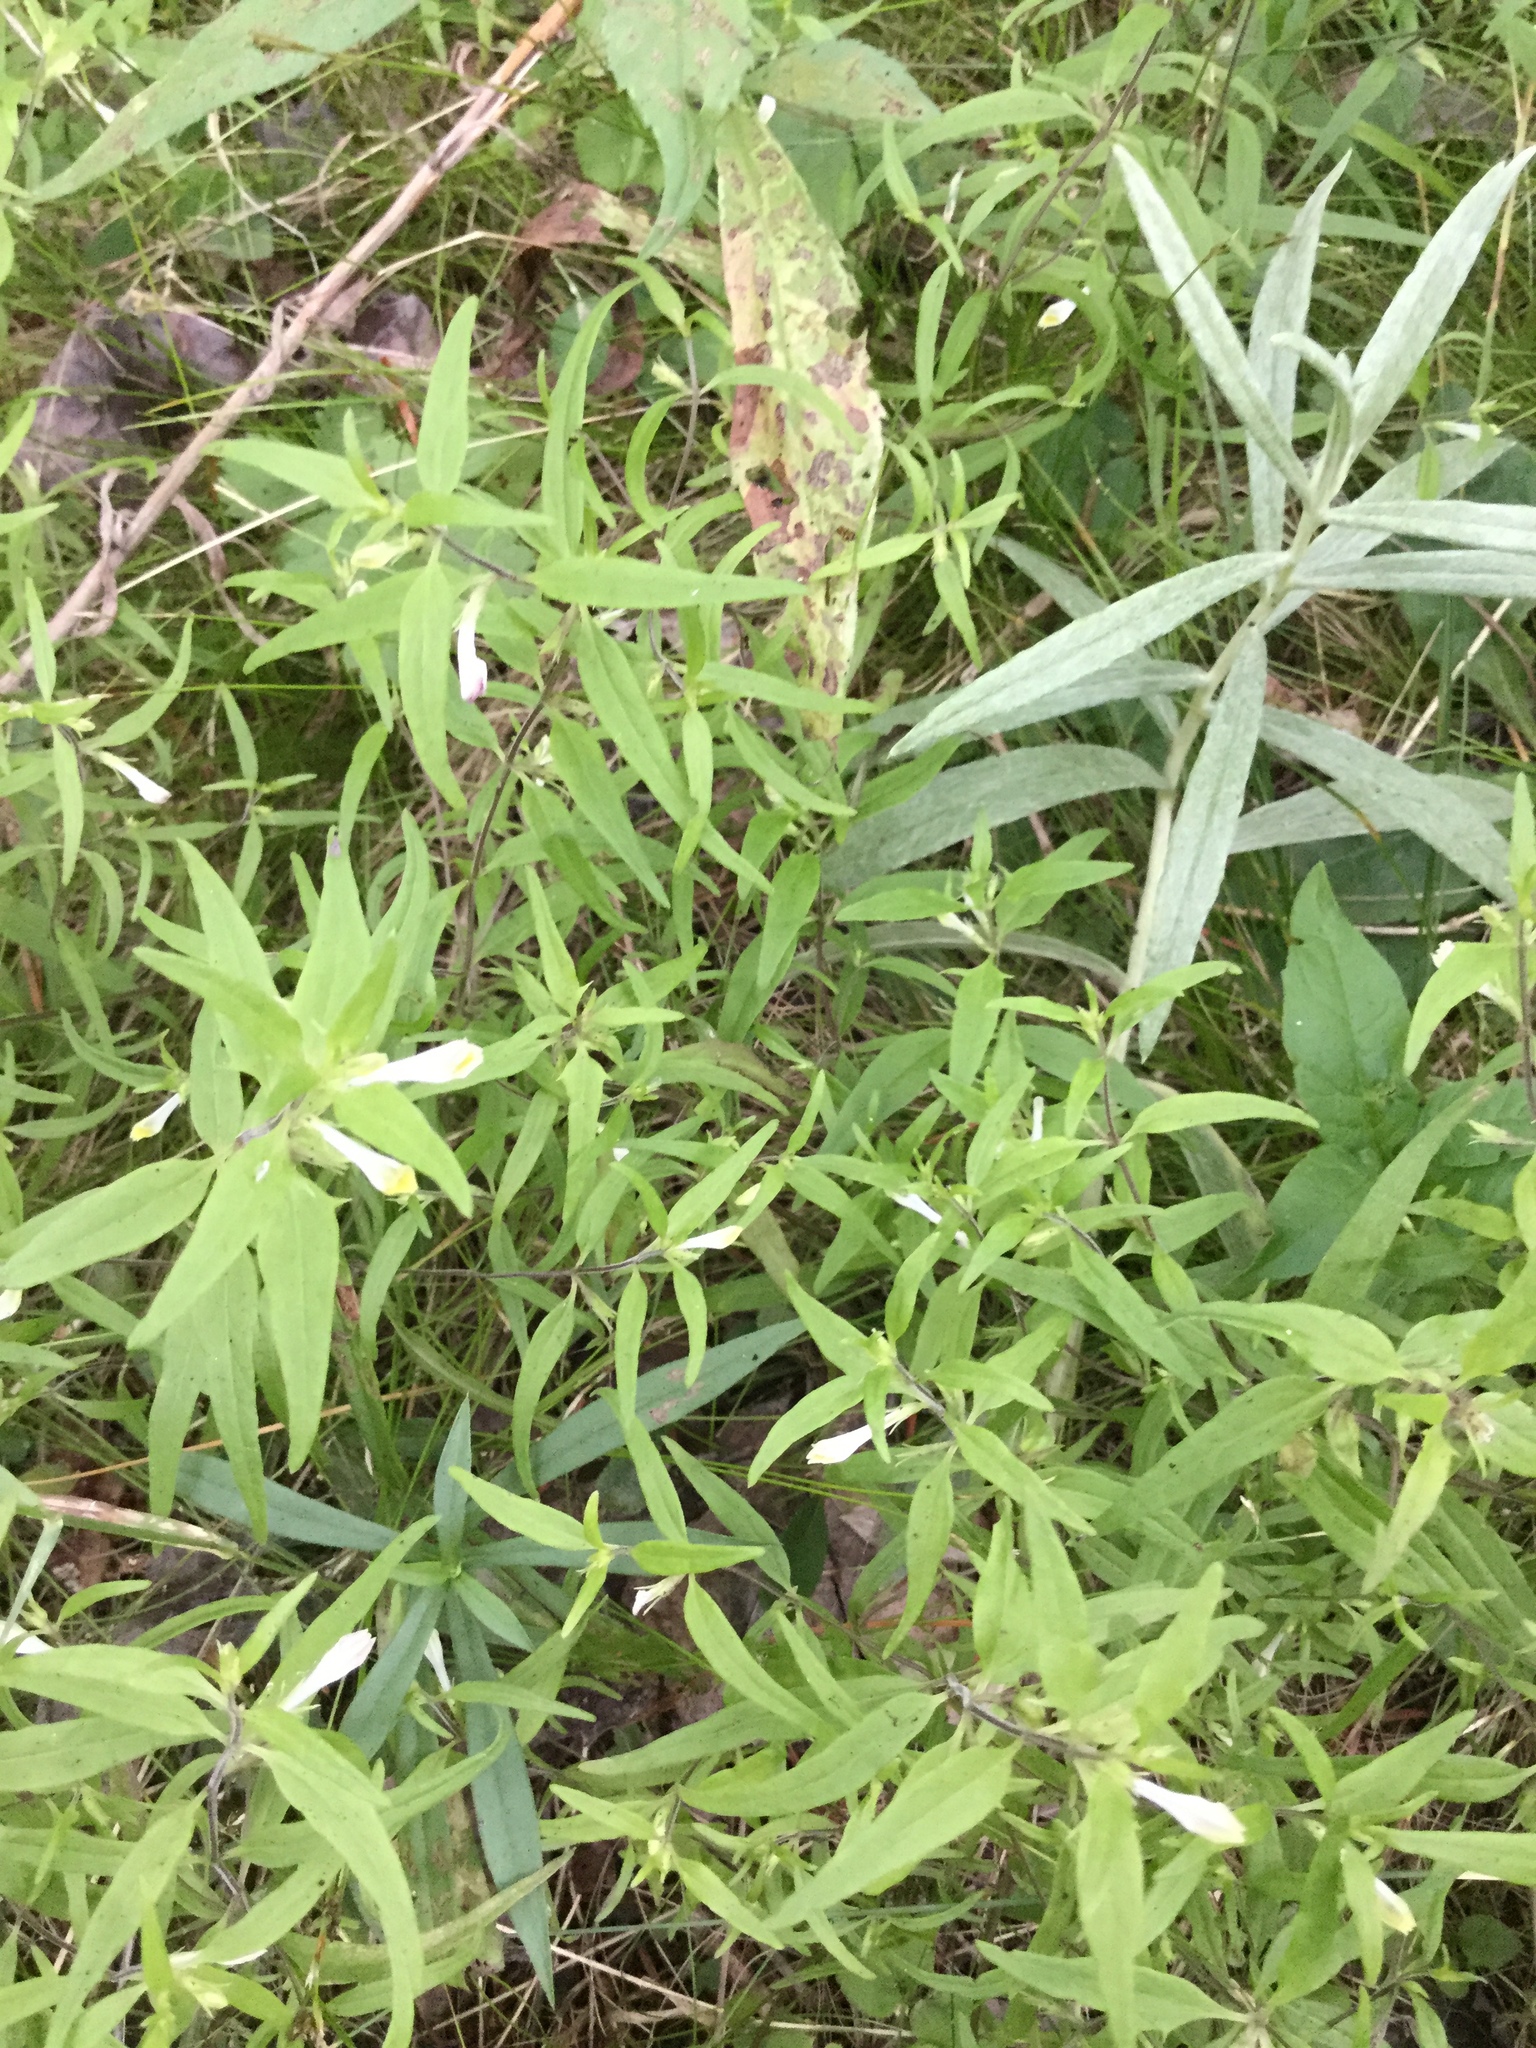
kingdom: Plantae
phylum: Tracheophyta
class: Magnoliopsida
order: Lamiales
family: Orobanchaceae
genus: Melampyrum
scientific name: Melampyrum lineare
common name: American cow-wheat
